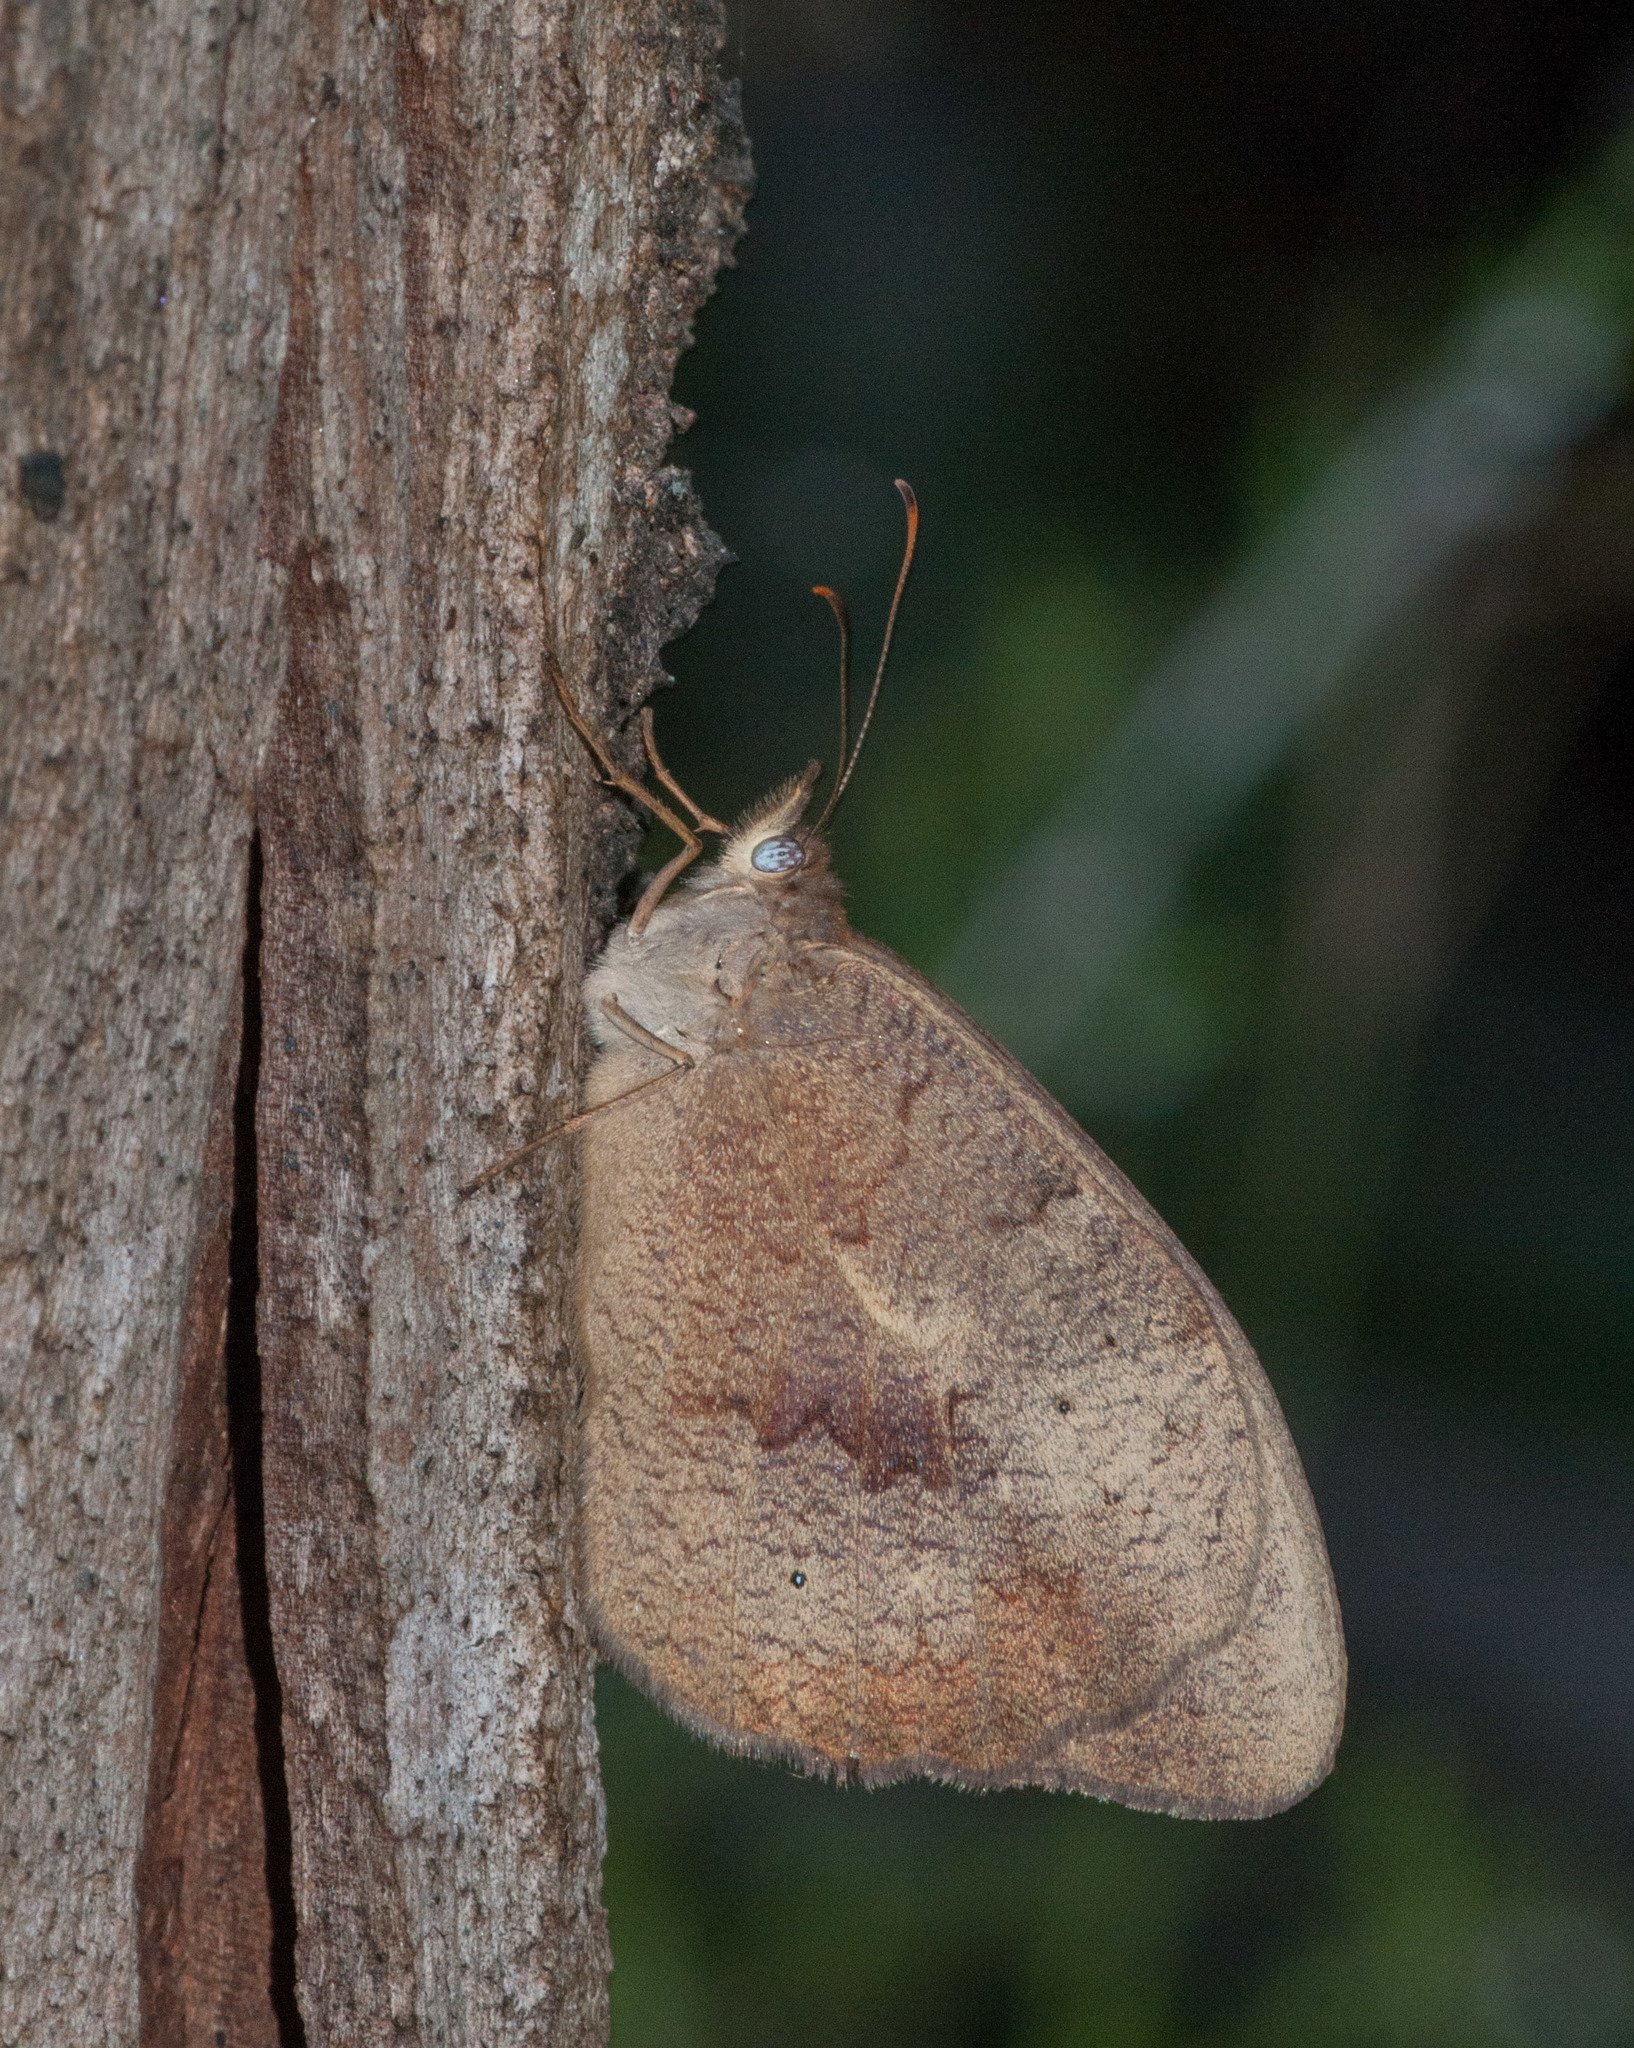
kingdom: Animalia
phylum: Arthropoda
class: Insecta
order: Lepidoptera
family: Nymphalidae
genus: Heteronympha
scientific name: Heteronympha merope
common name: Common brown
